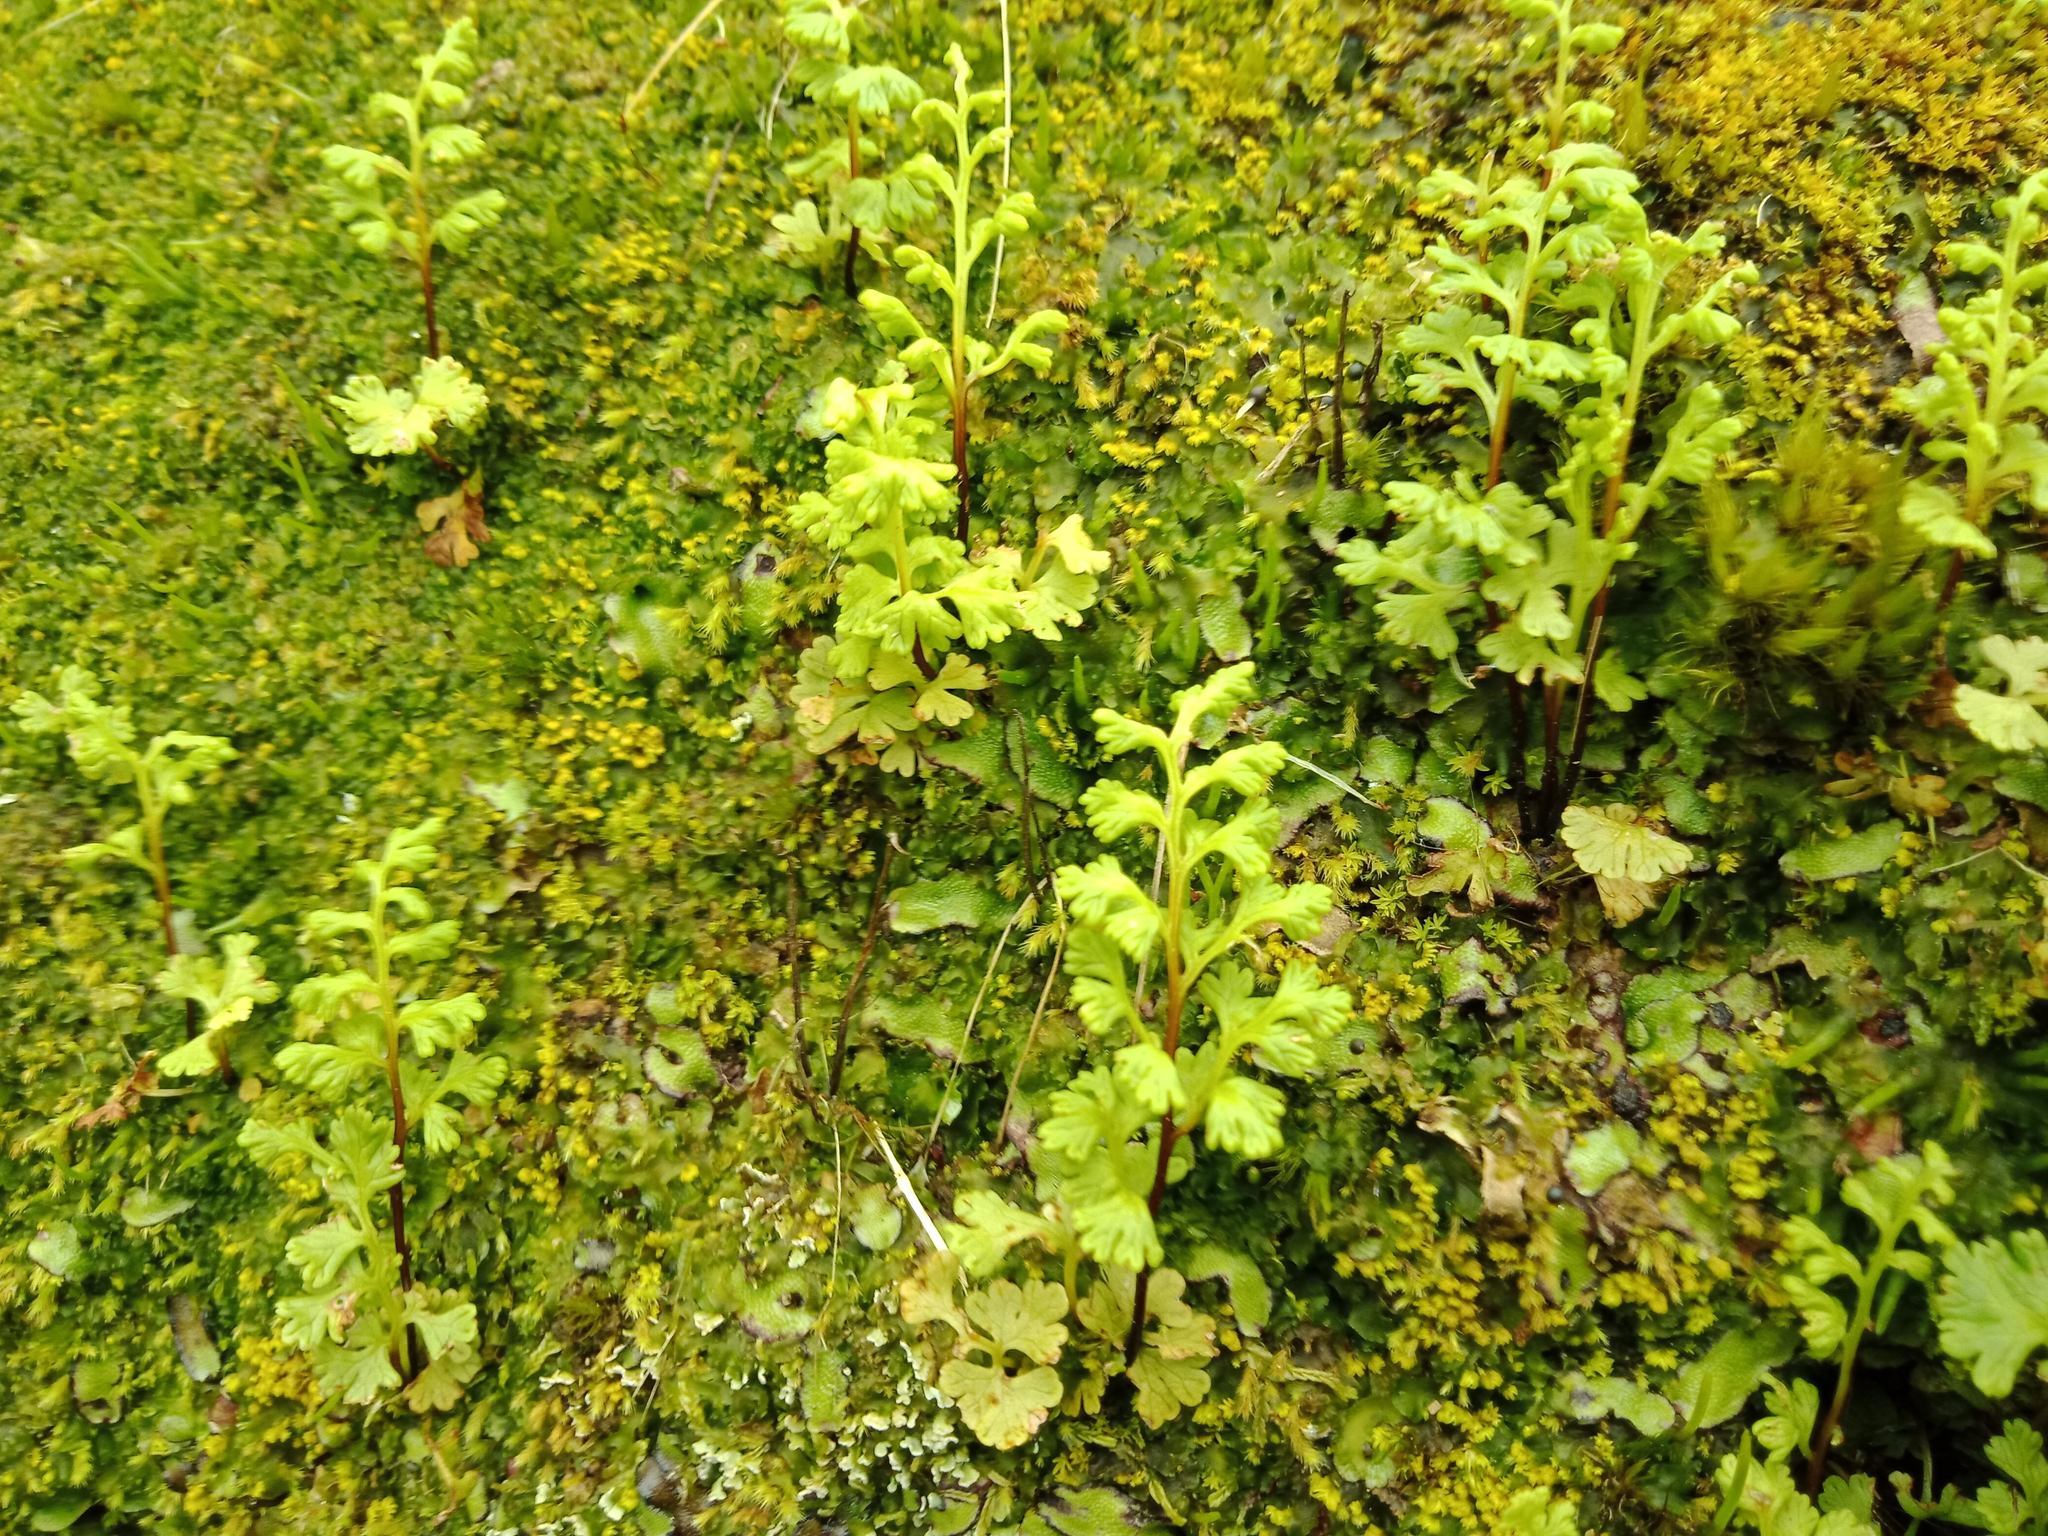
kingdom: Plantae
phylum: Tracheophyta
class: Polypodiopsida
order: Polypodiales
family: Pteridaceae
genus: Anogramma
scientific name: Anogramma leptophylla
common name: Jersey fern
